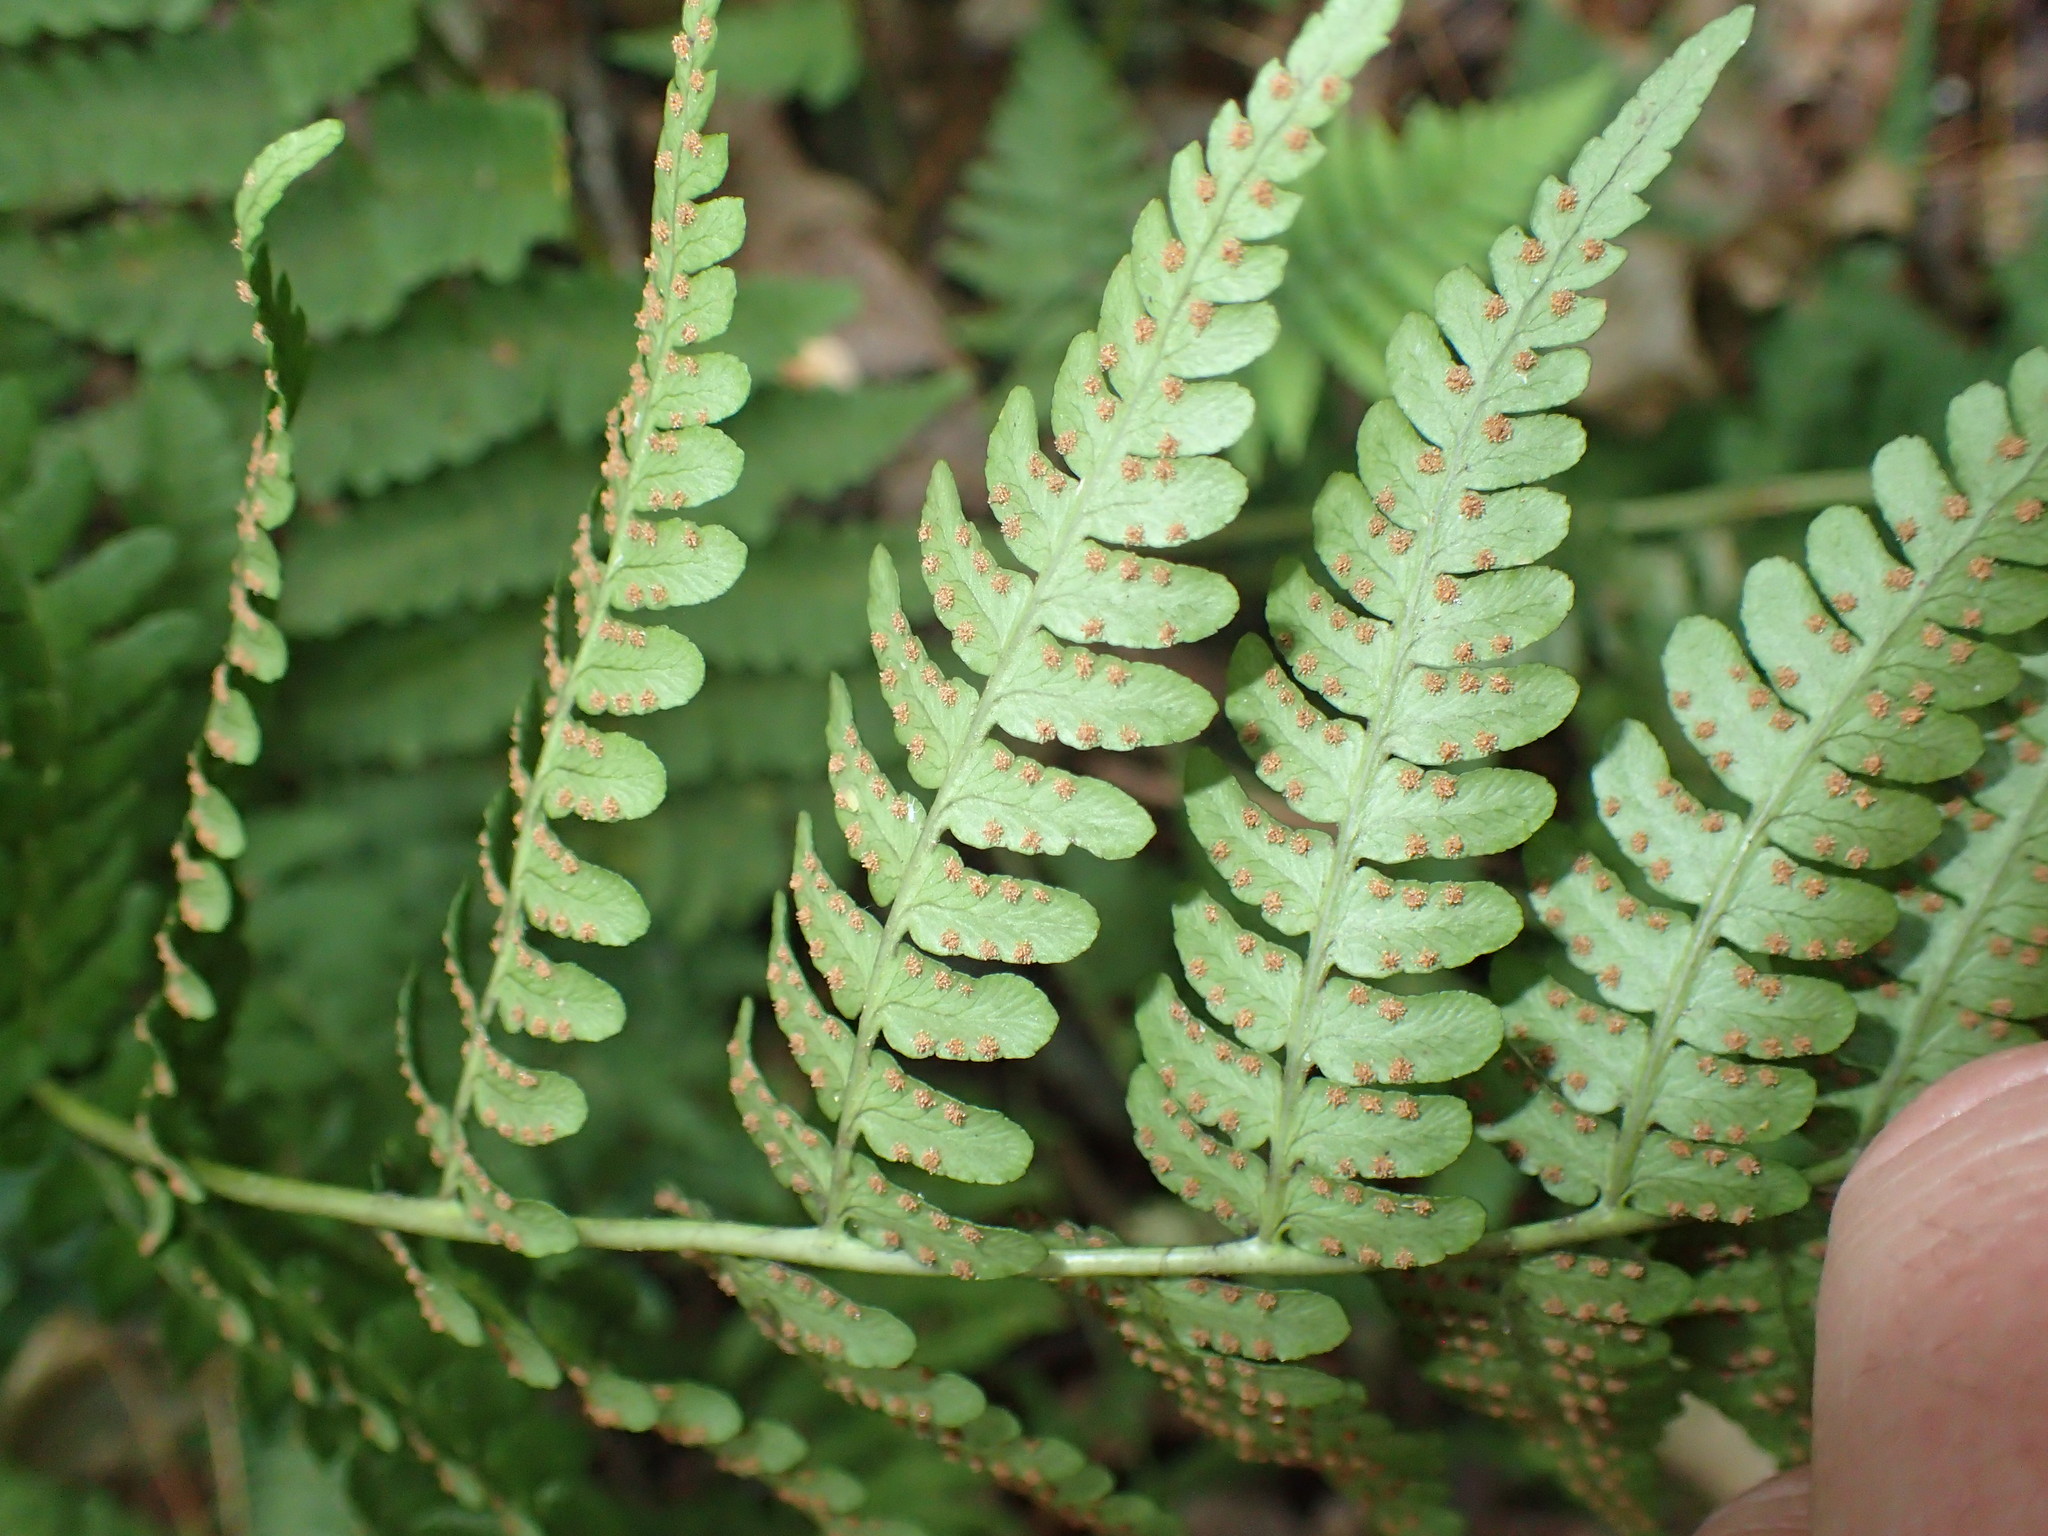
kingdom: Plantae
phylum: Tracheophyta
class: Polypodiopsida
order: Polypodiales
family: Dryopteridaceae
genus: Dryopteris
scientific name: Dryopteris marginalis
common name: Marginal wood fern
